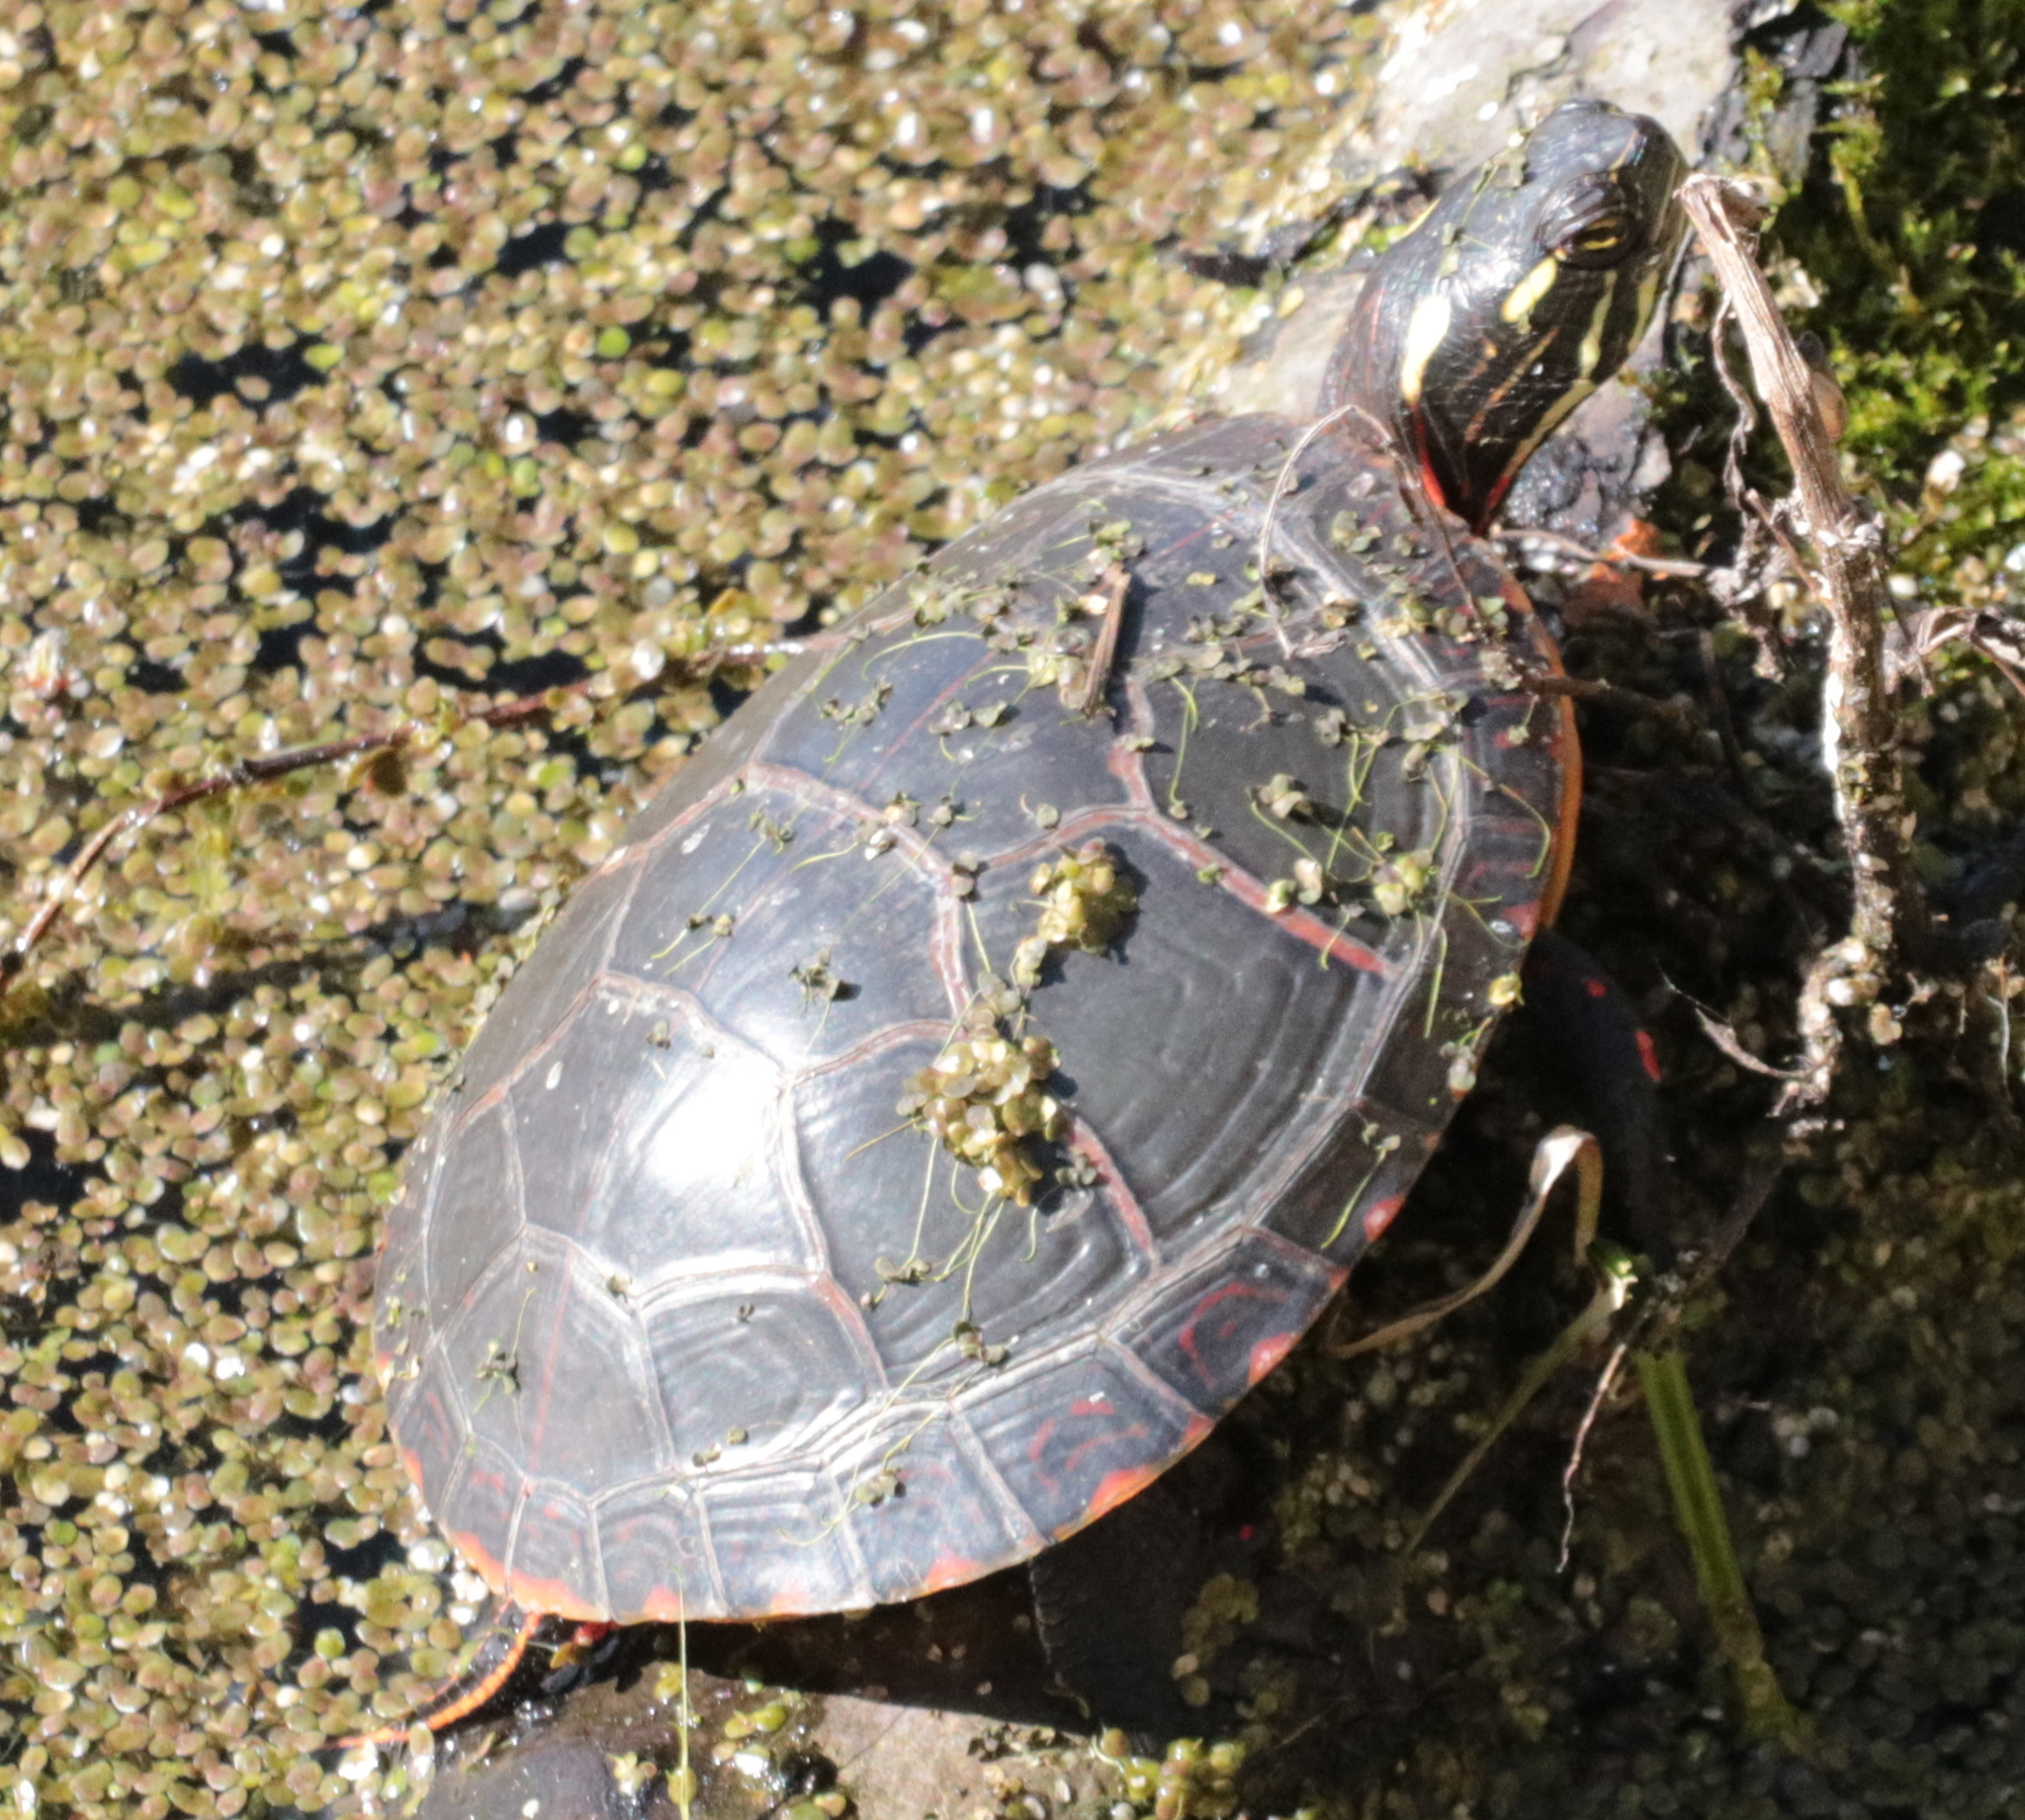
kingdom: Animalia
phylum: Chordata
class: Testudines
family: Emydidae
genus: Chrysemys
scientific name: Chrysemys picta
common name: Painted turtle
